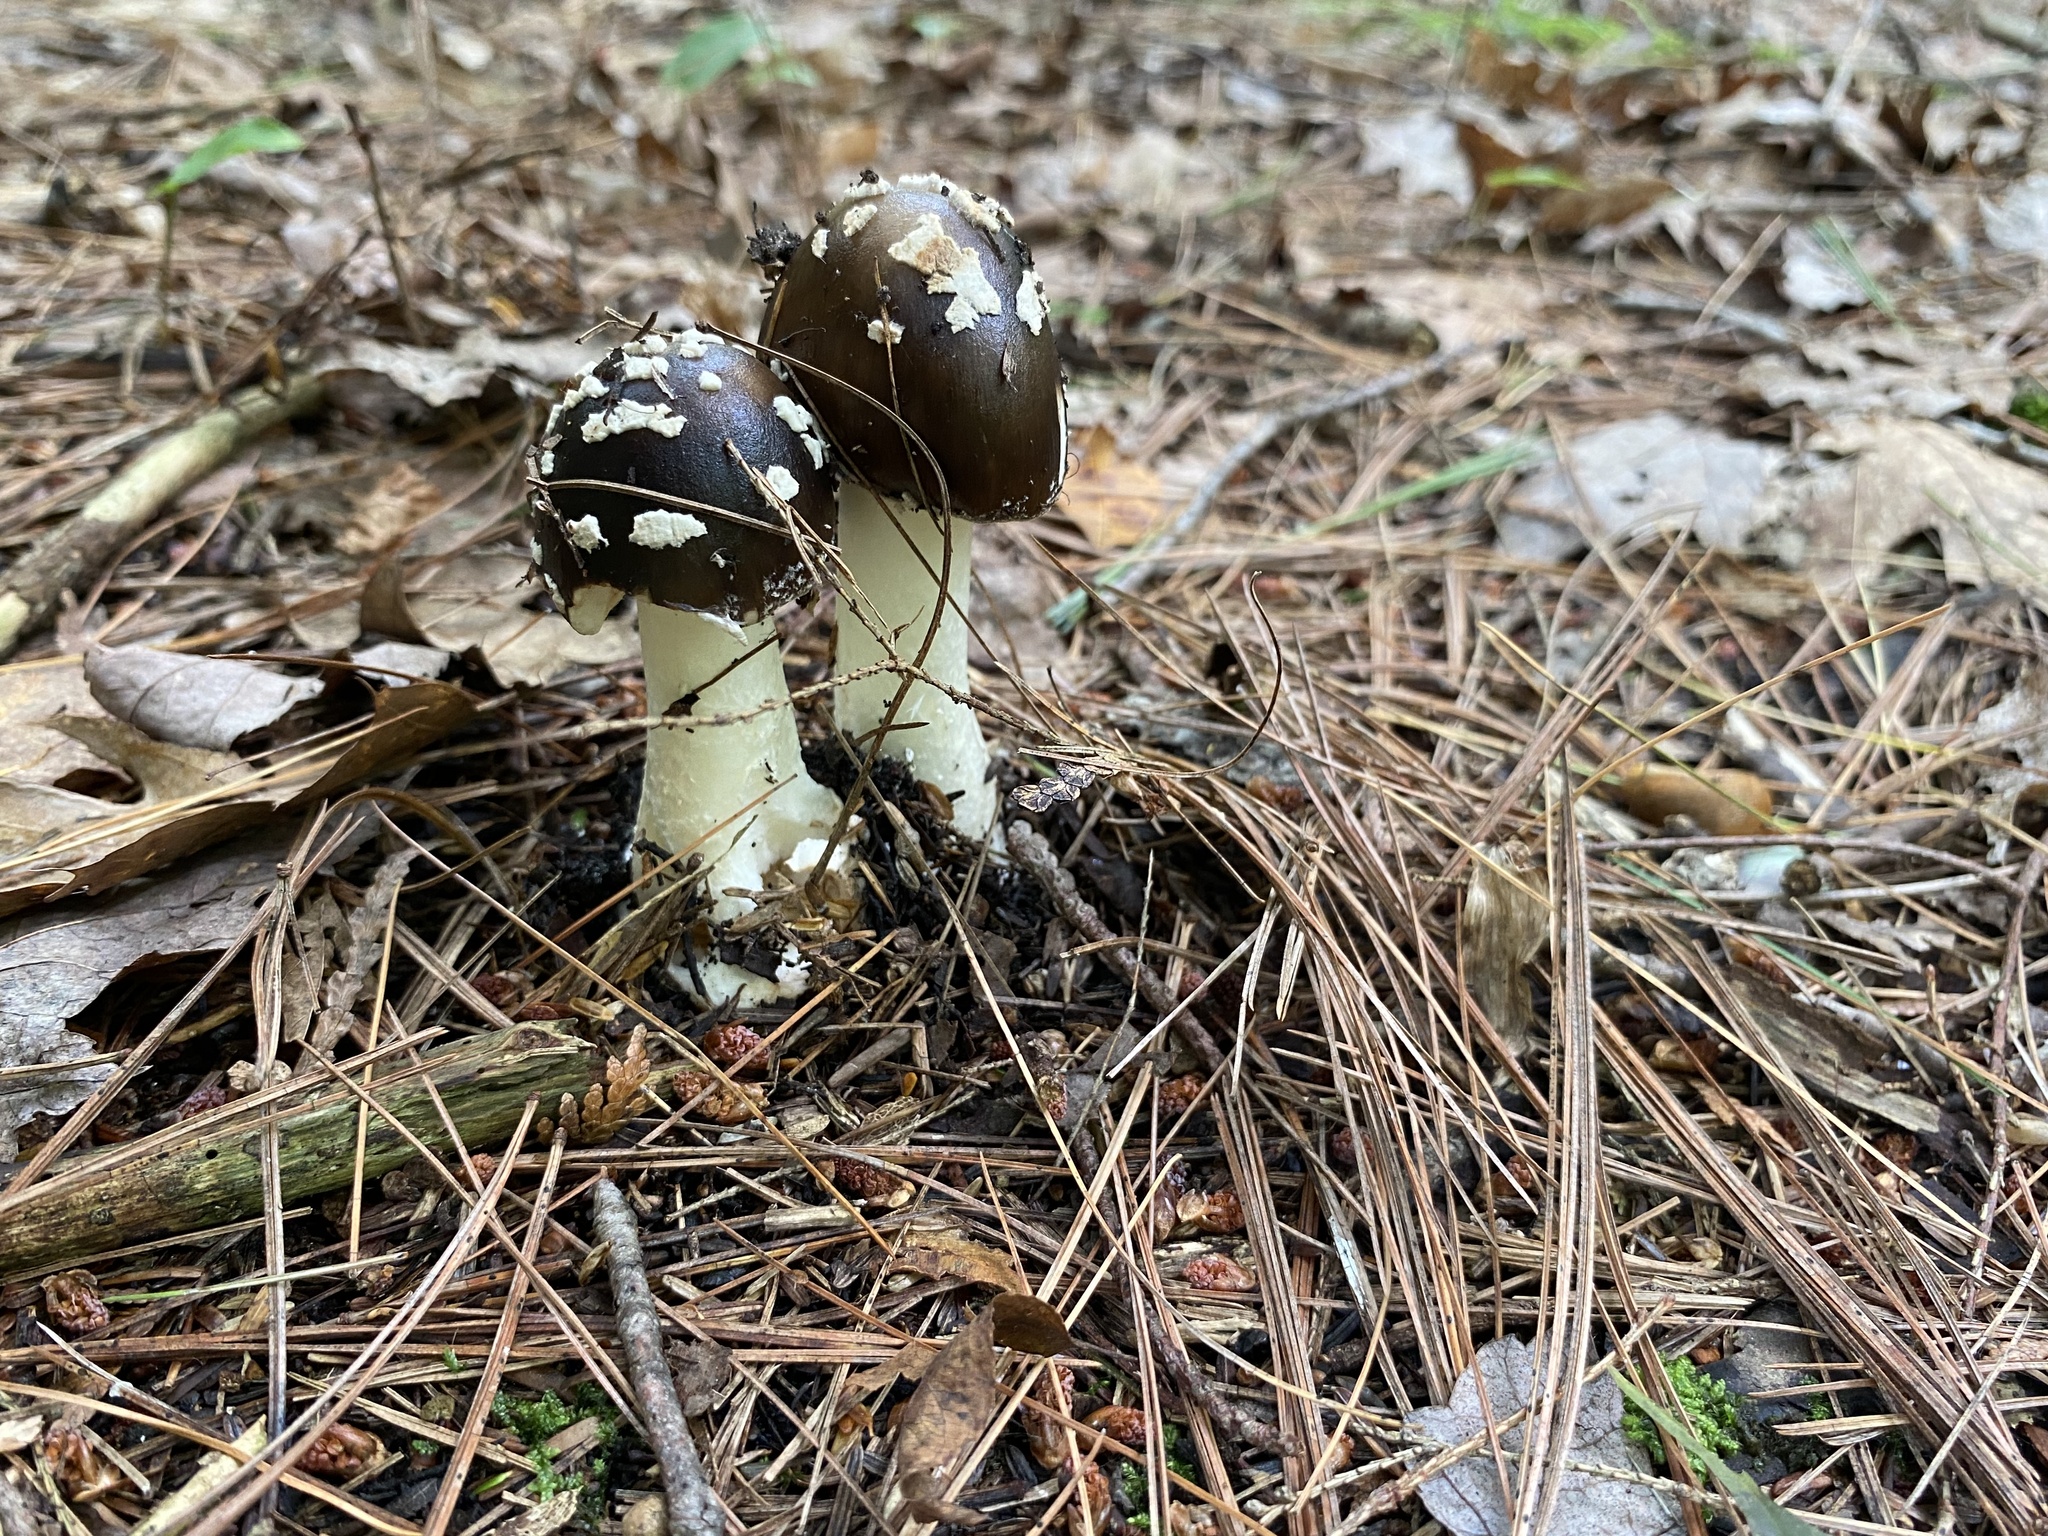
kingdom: Fungi
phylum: Basidiomycota
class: Agaricomycetes
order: Agaricales
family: Amanitaceae
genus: Amanita
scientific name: Amanita brunnescens
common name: Brown american star-footed amanita
